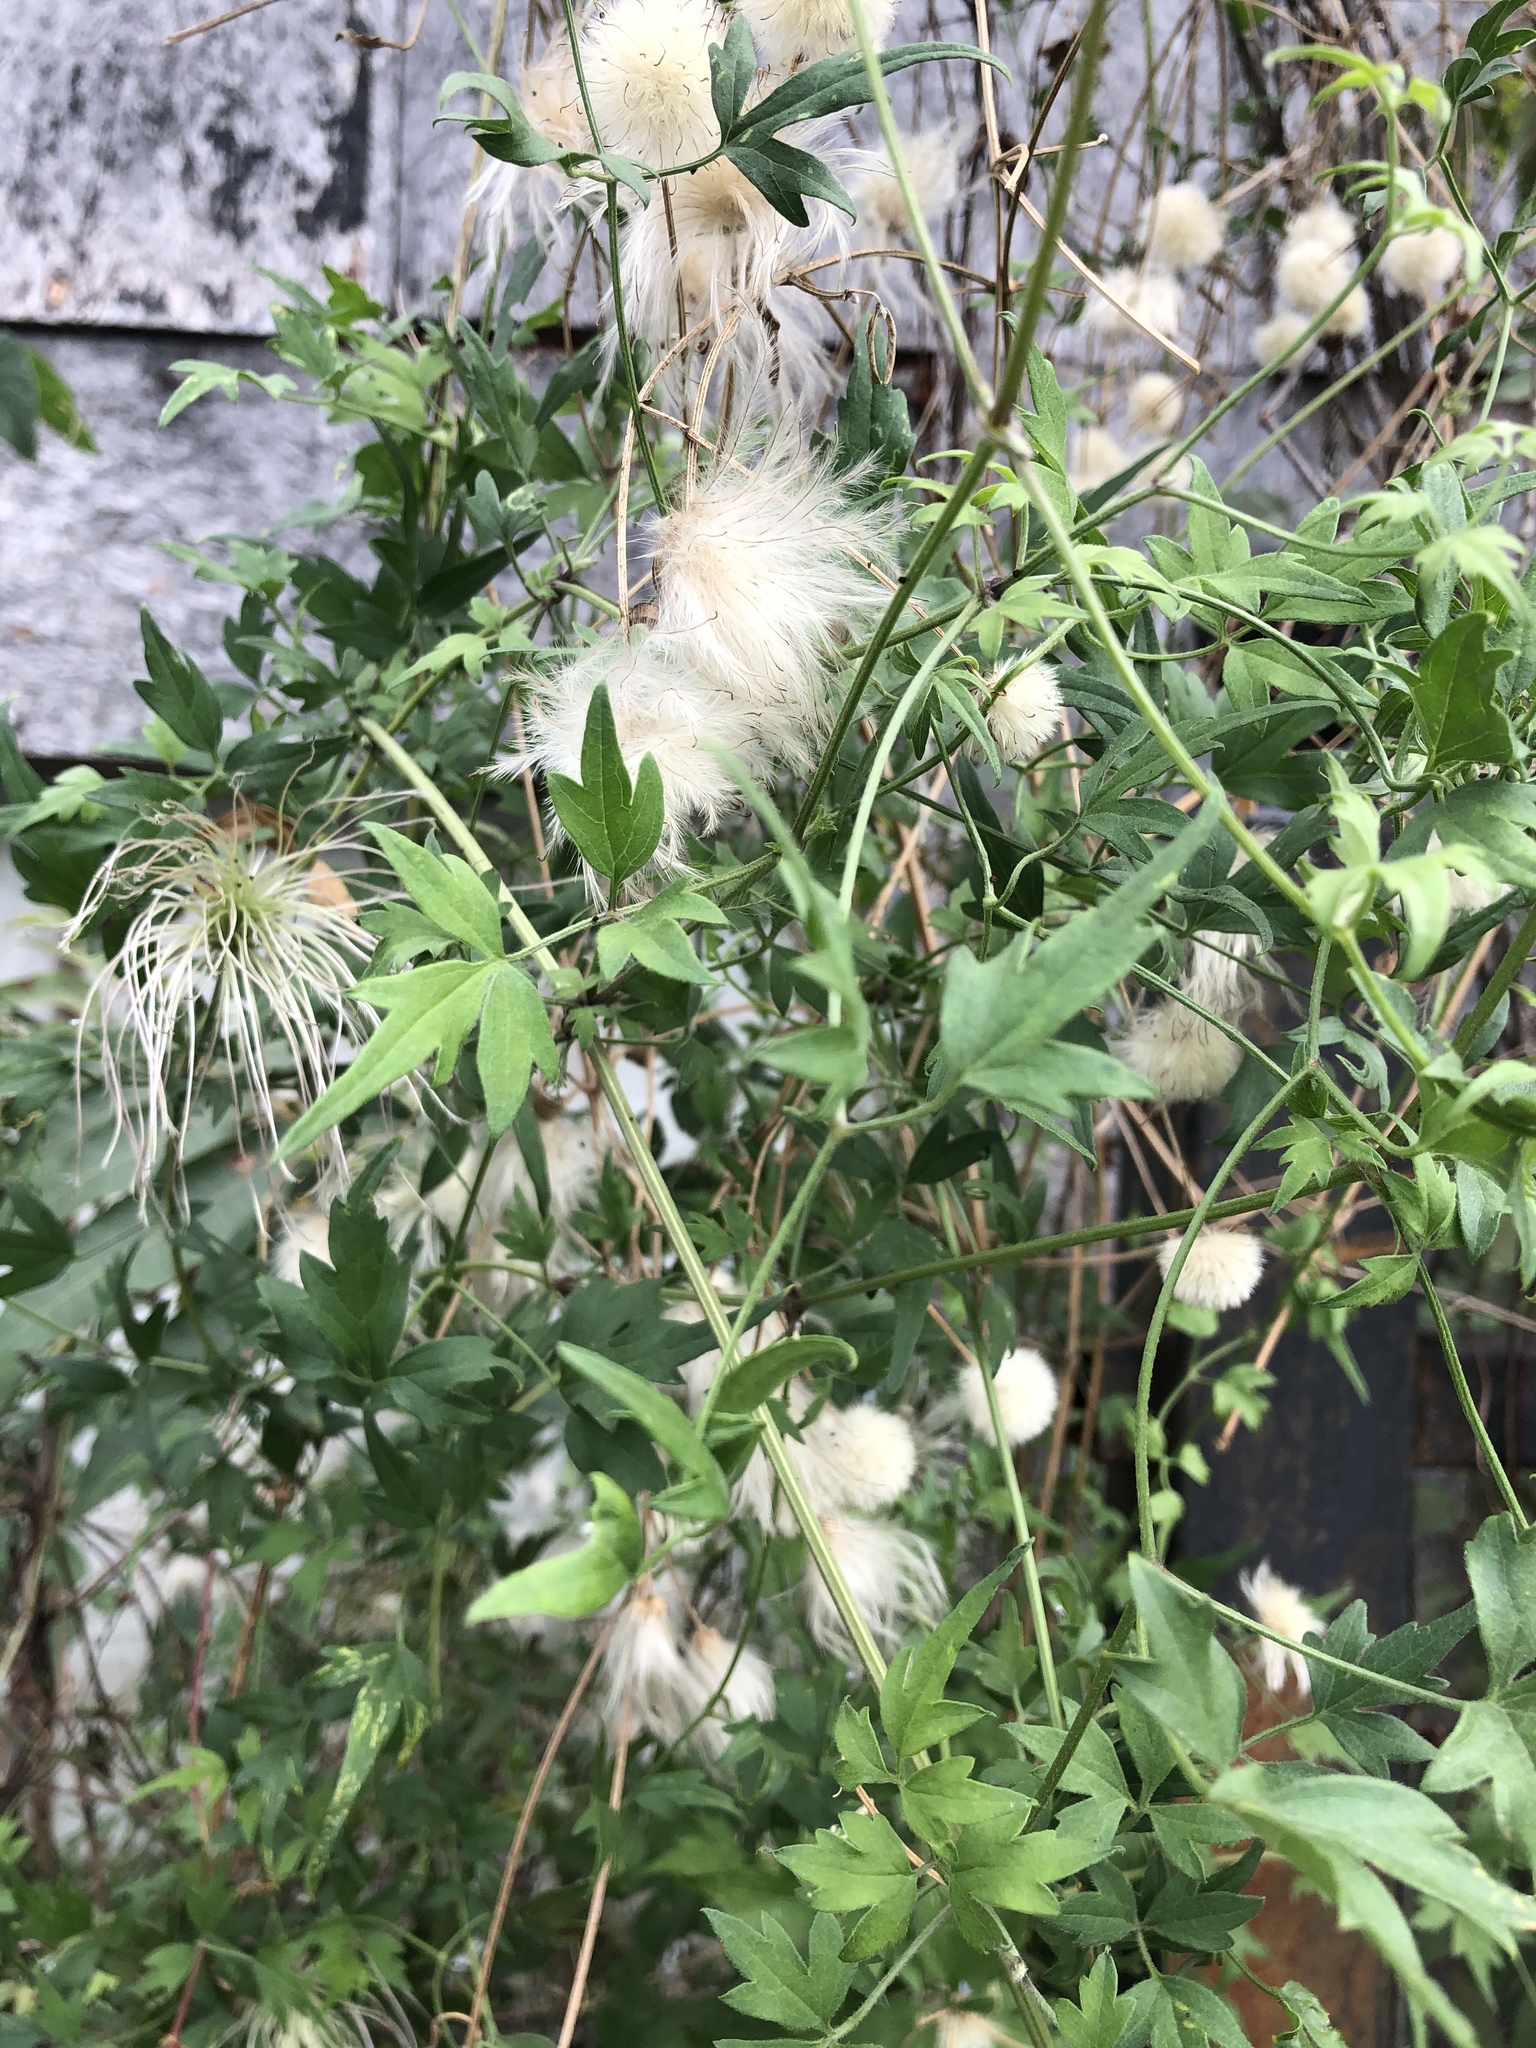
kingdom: Plantae
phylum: Tracheophyta
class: Magnoliopsida
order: Ranunculales
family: Ranunculaceae
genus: Clematis
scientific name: Clematis drummondii
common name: Texas virgin's bower
